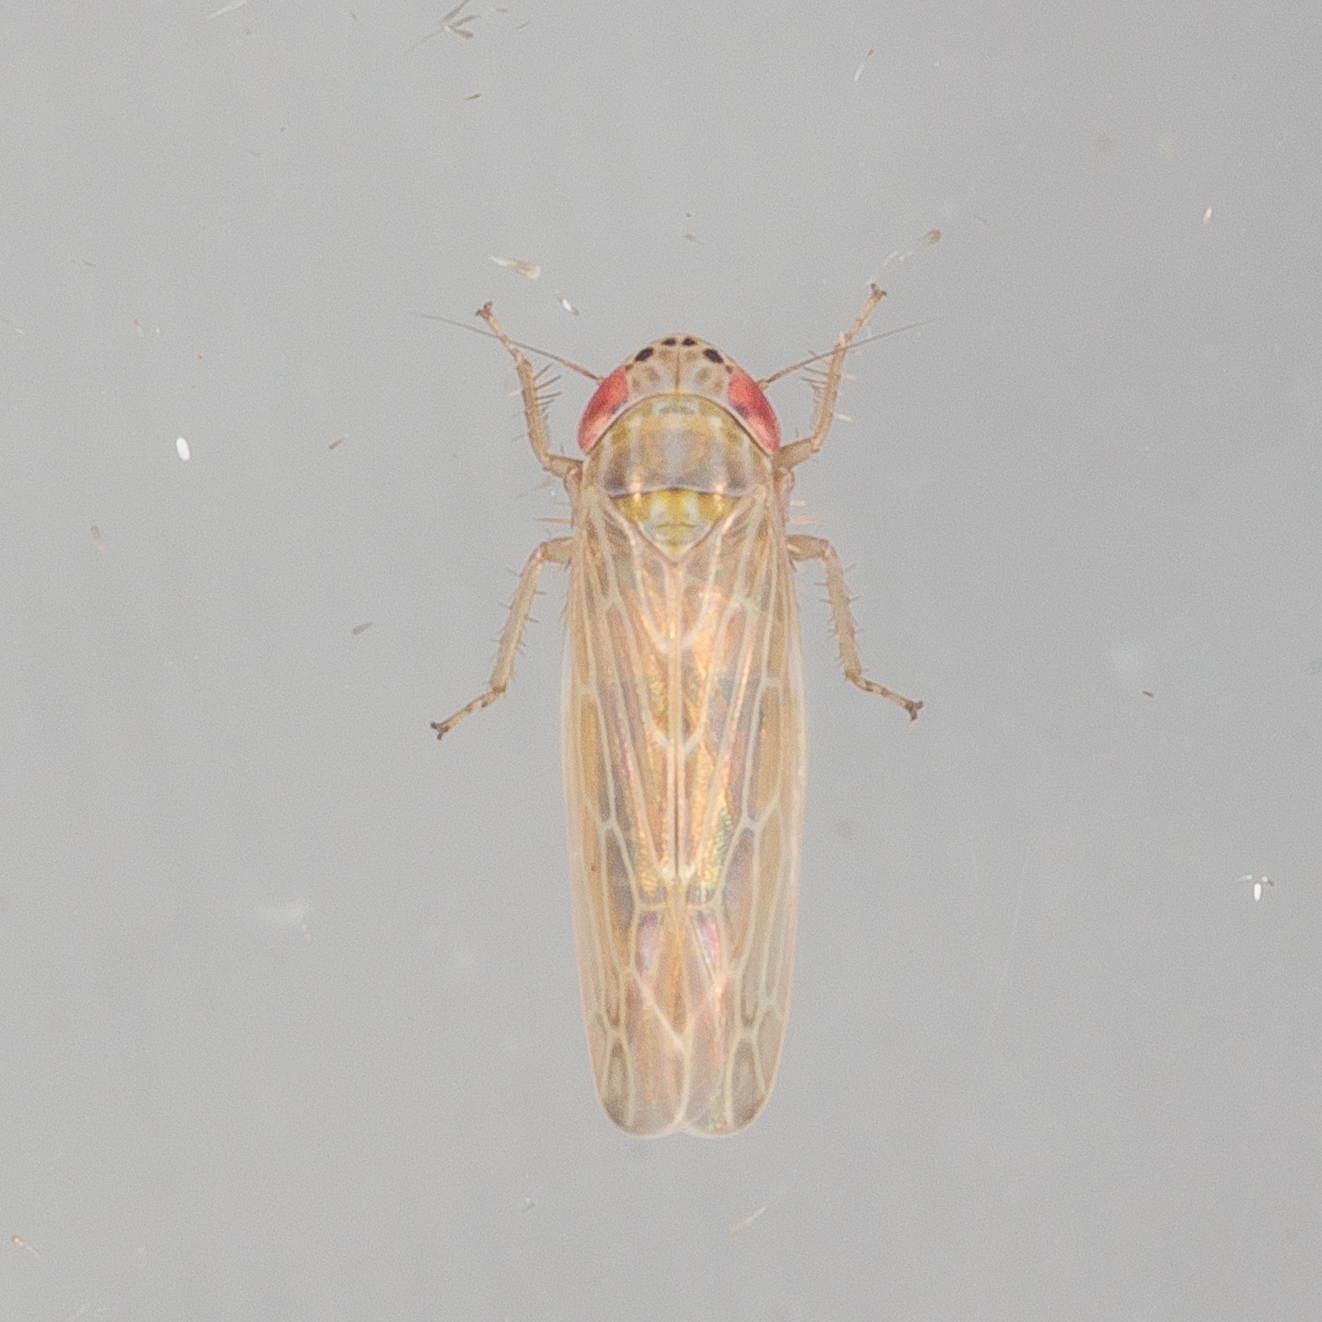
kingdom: Animalia
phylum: Arthropoda
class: Insecta
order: Hemiptera
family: Cicadellidae
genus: Graminella
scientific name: Graminella sonora
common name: Lesser lawn leafhopper
